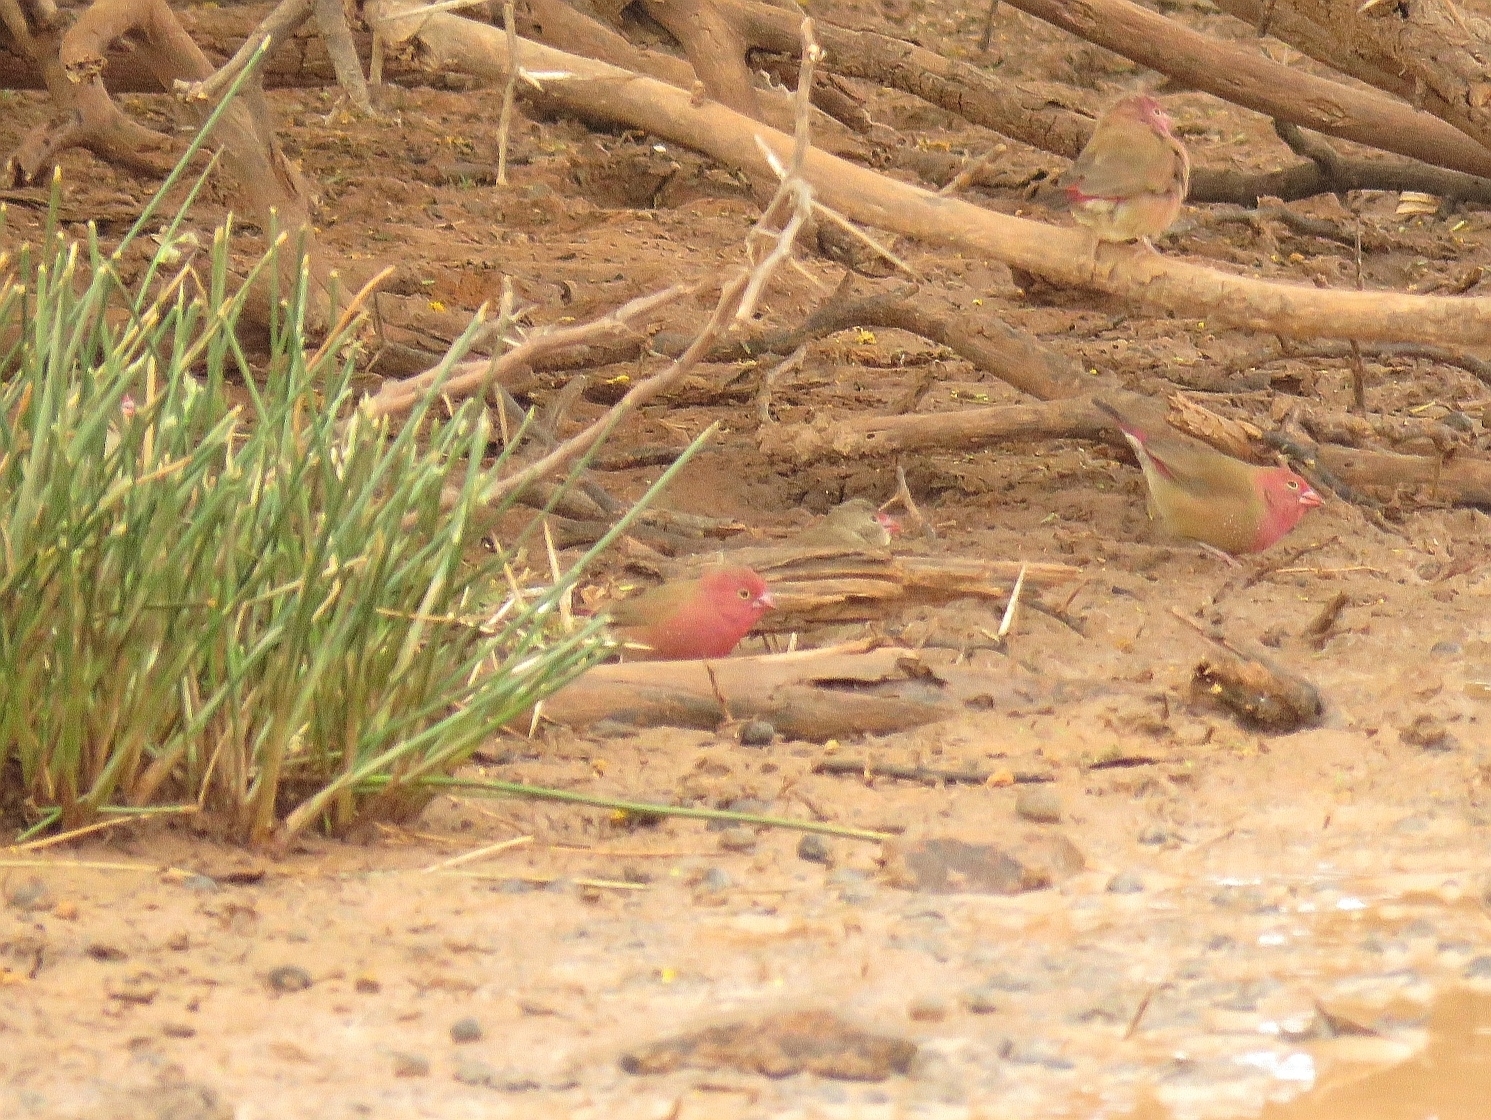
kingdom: Animalia
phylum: Chordata
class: Aves
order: Passeriformes
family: Estrildidae
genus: Lagonosticta
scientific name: Lagonosticta senegala
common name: Red-billed firefinch
